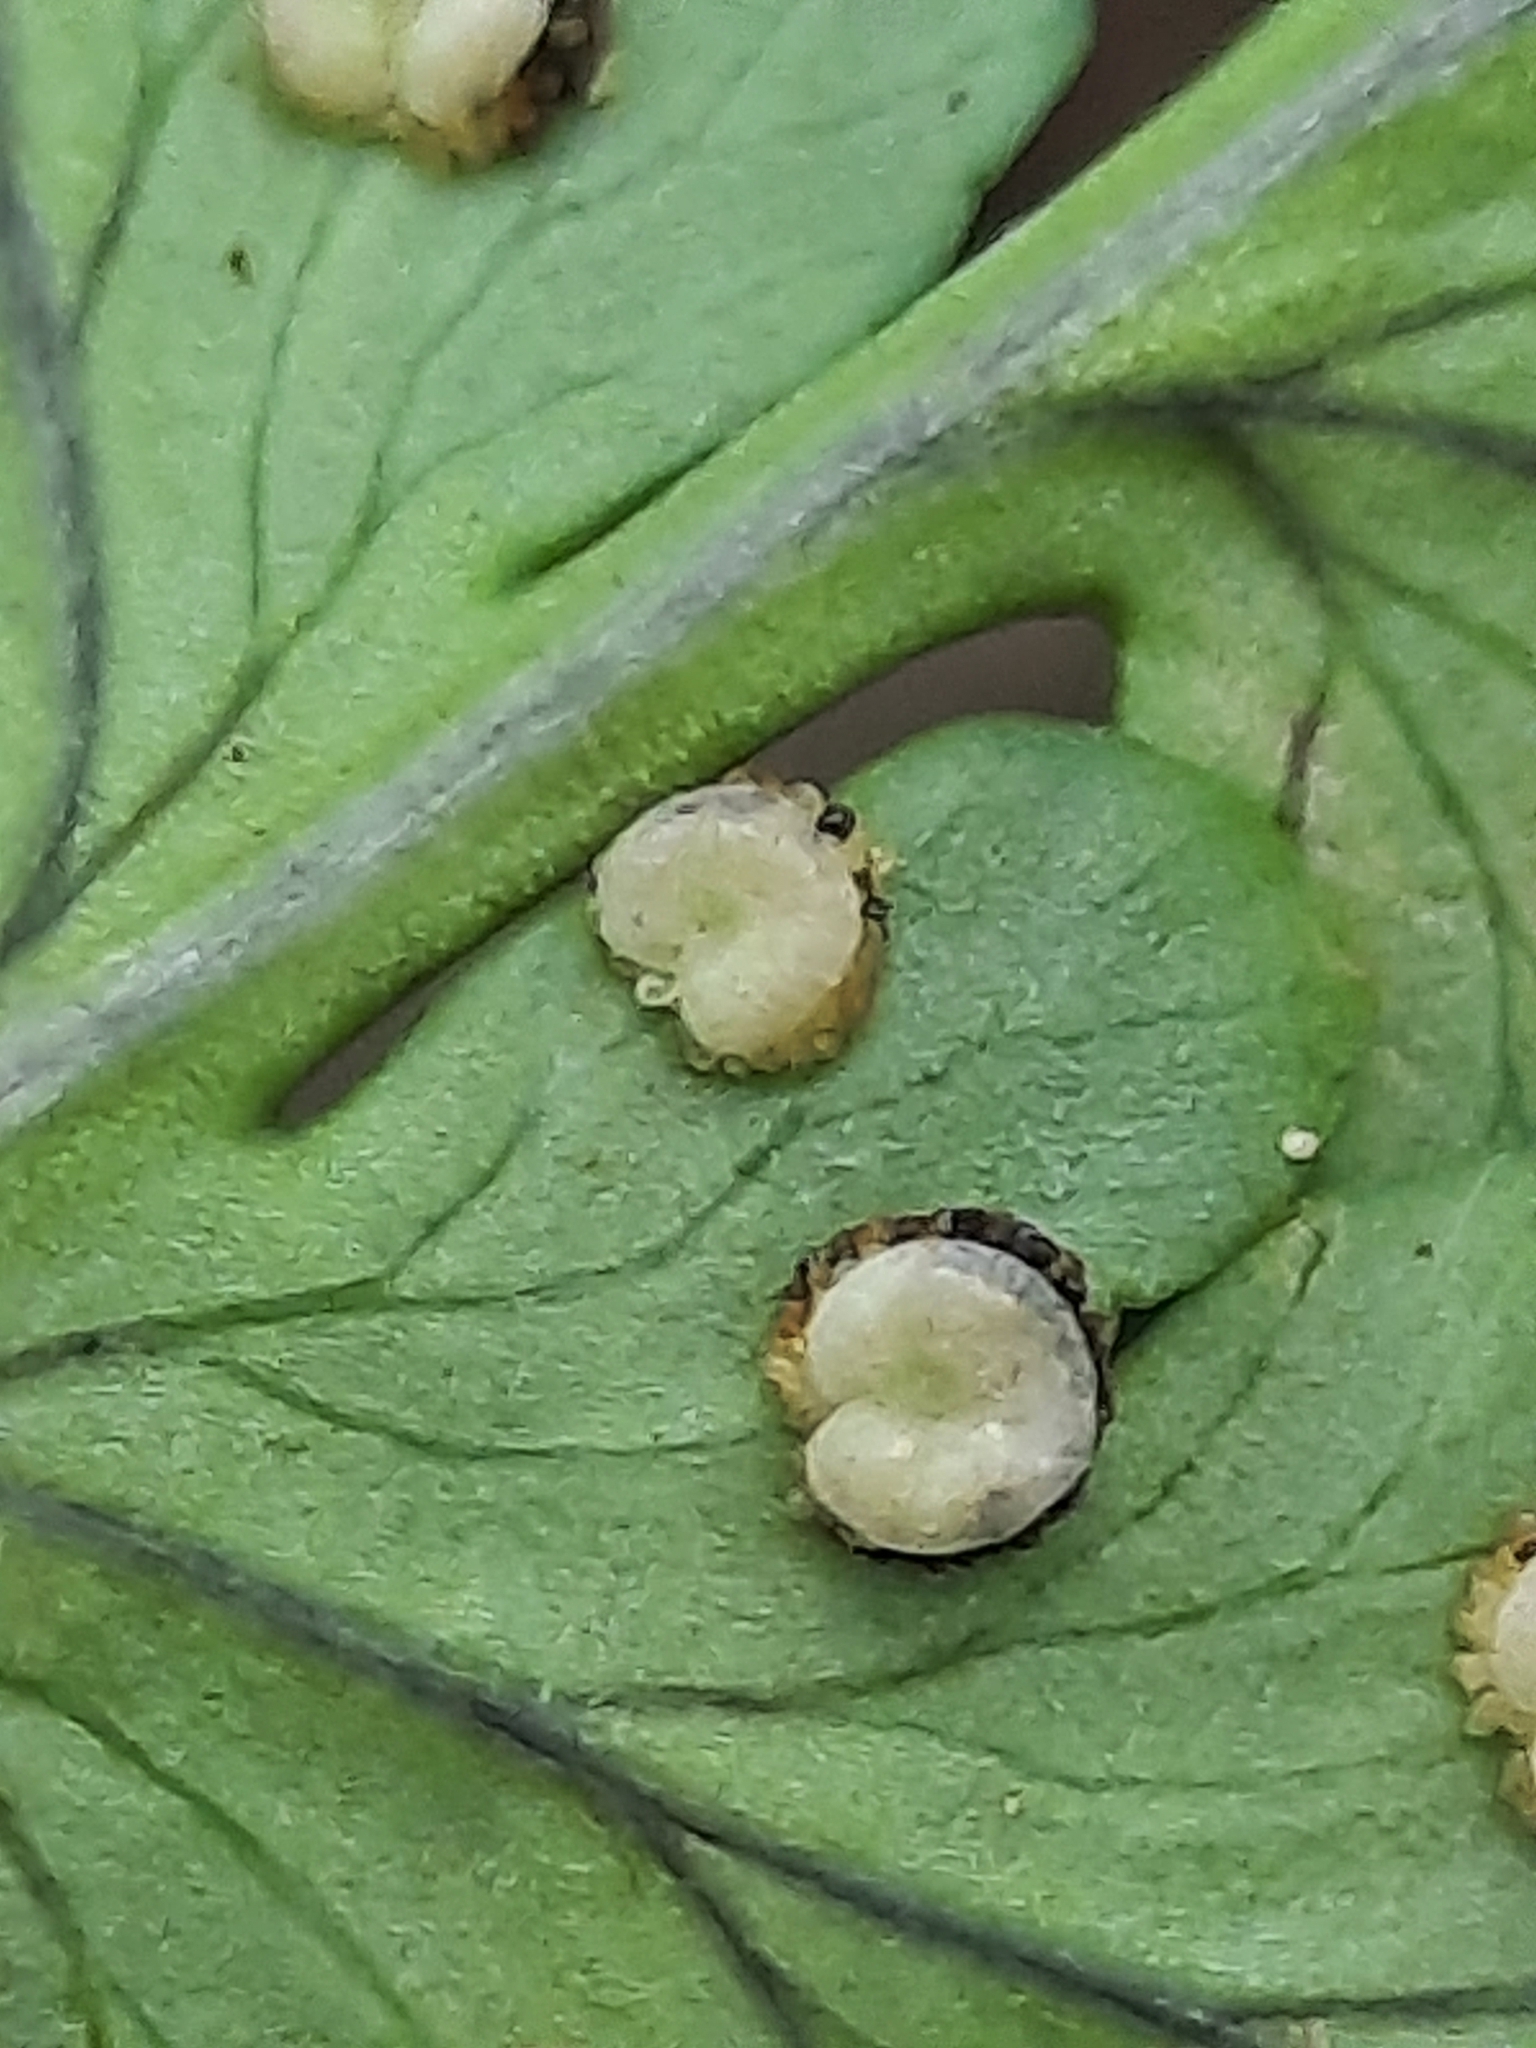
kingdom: Plantae
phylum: Tracheophyta
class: Polypodiopsida
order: Polypodiales
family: Dryopteridaceae
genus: Dryopteris
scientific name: Dryopteris marginalis
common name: Marginal wood fern
